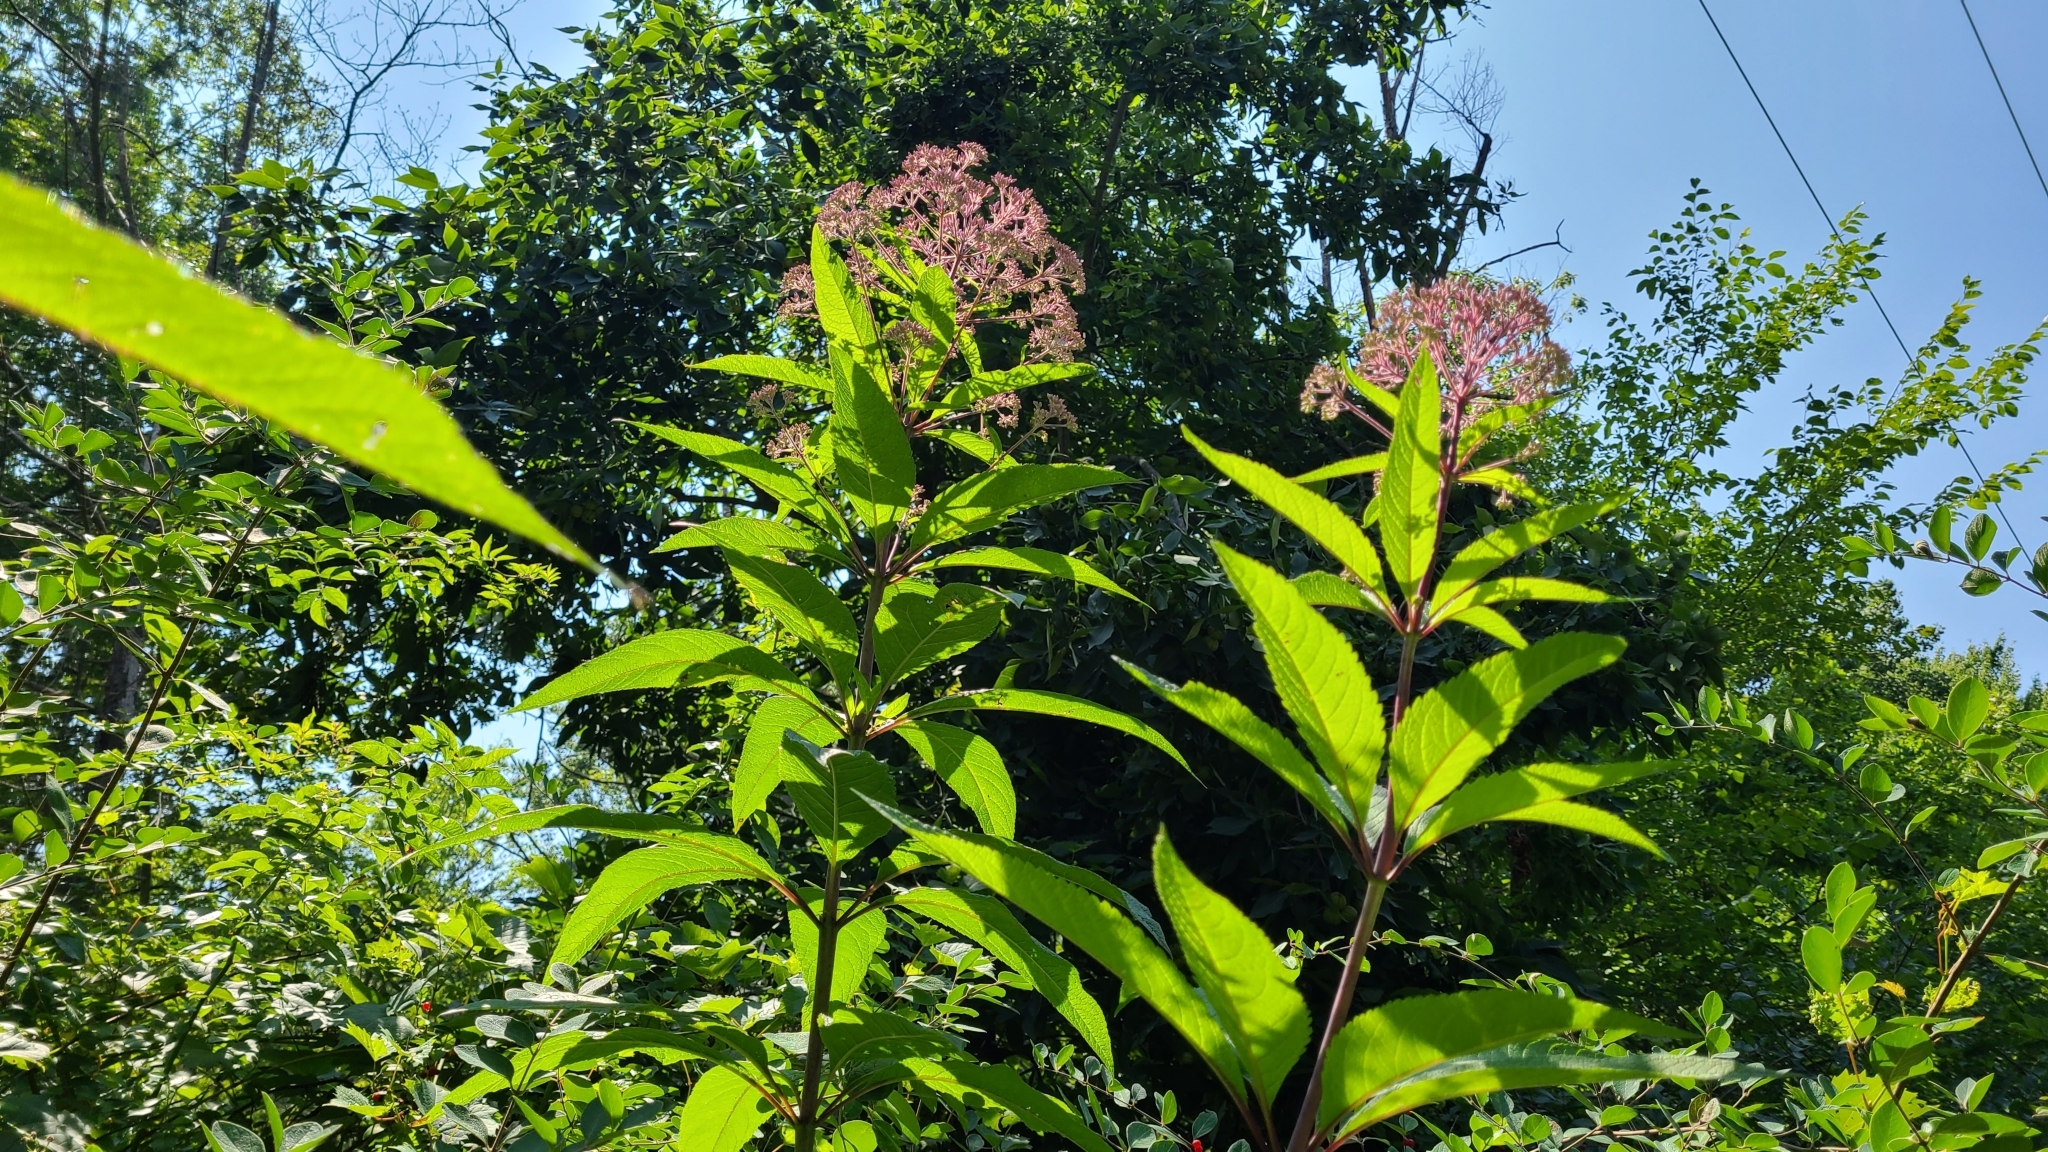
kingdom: Plantae
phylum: Tracheophyta
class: Magnoliopsida
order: Asterales
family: Asteraceae
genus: Eutrochium
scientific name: Eutrochium fistulosum
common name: Trumpetweed
